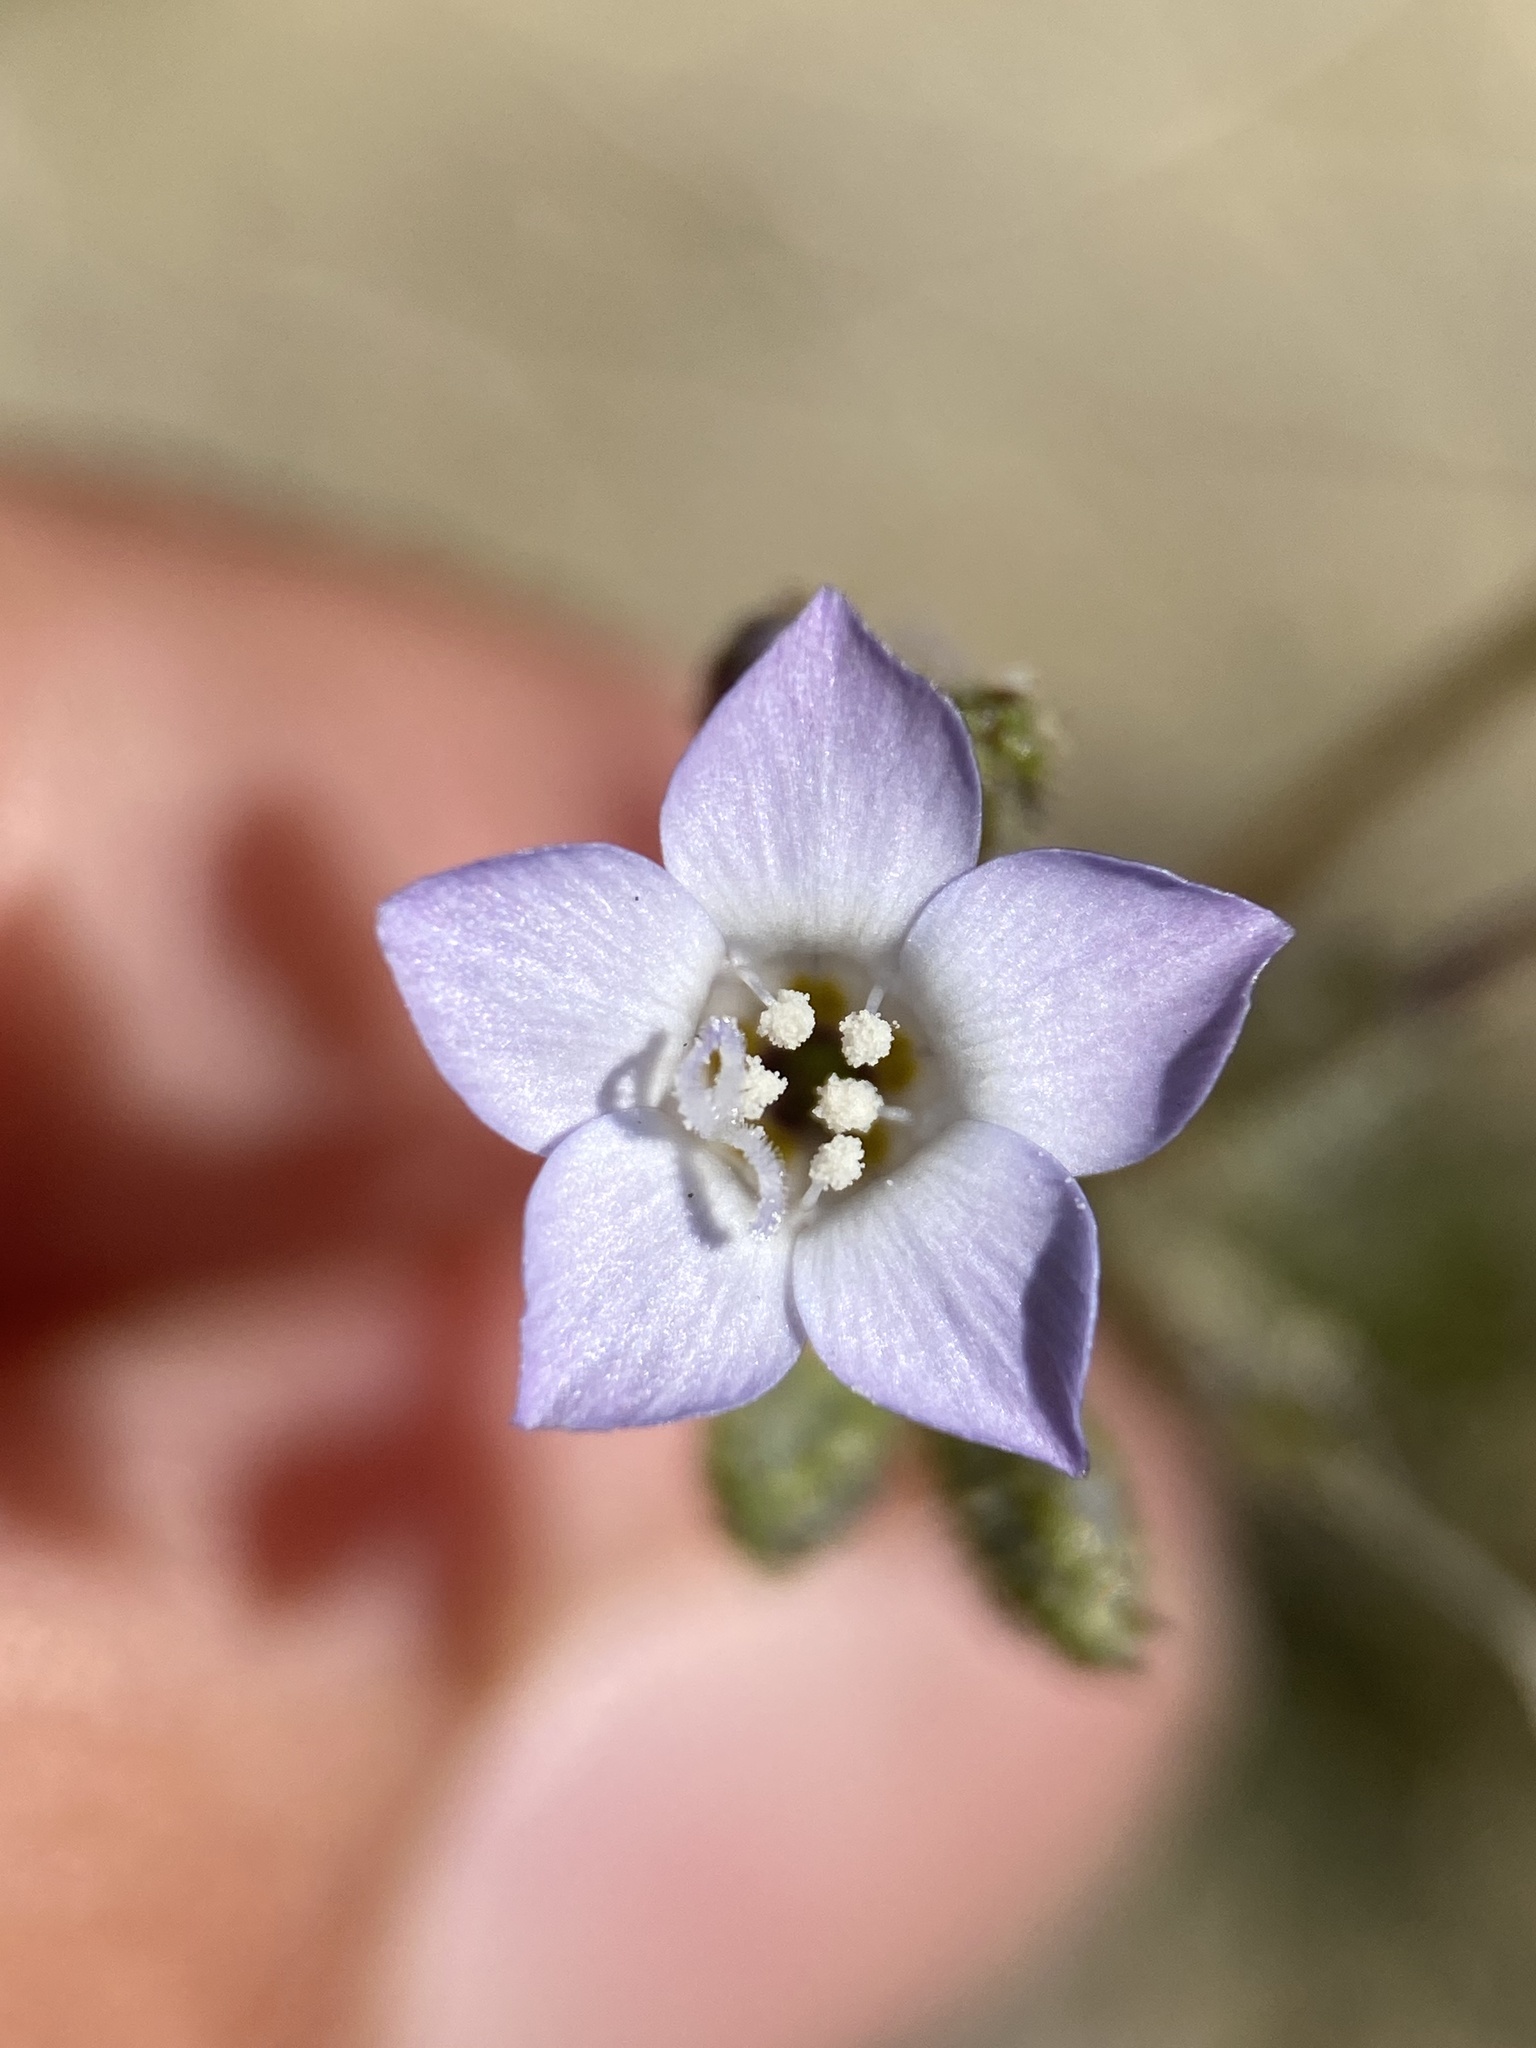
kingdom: Plantae
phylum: Tracheophyta
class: Magnoliopsida
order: Ericales
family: Polemoniaceae
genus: Gilia
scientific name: Gilia sinuata
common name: Rosy gilia
